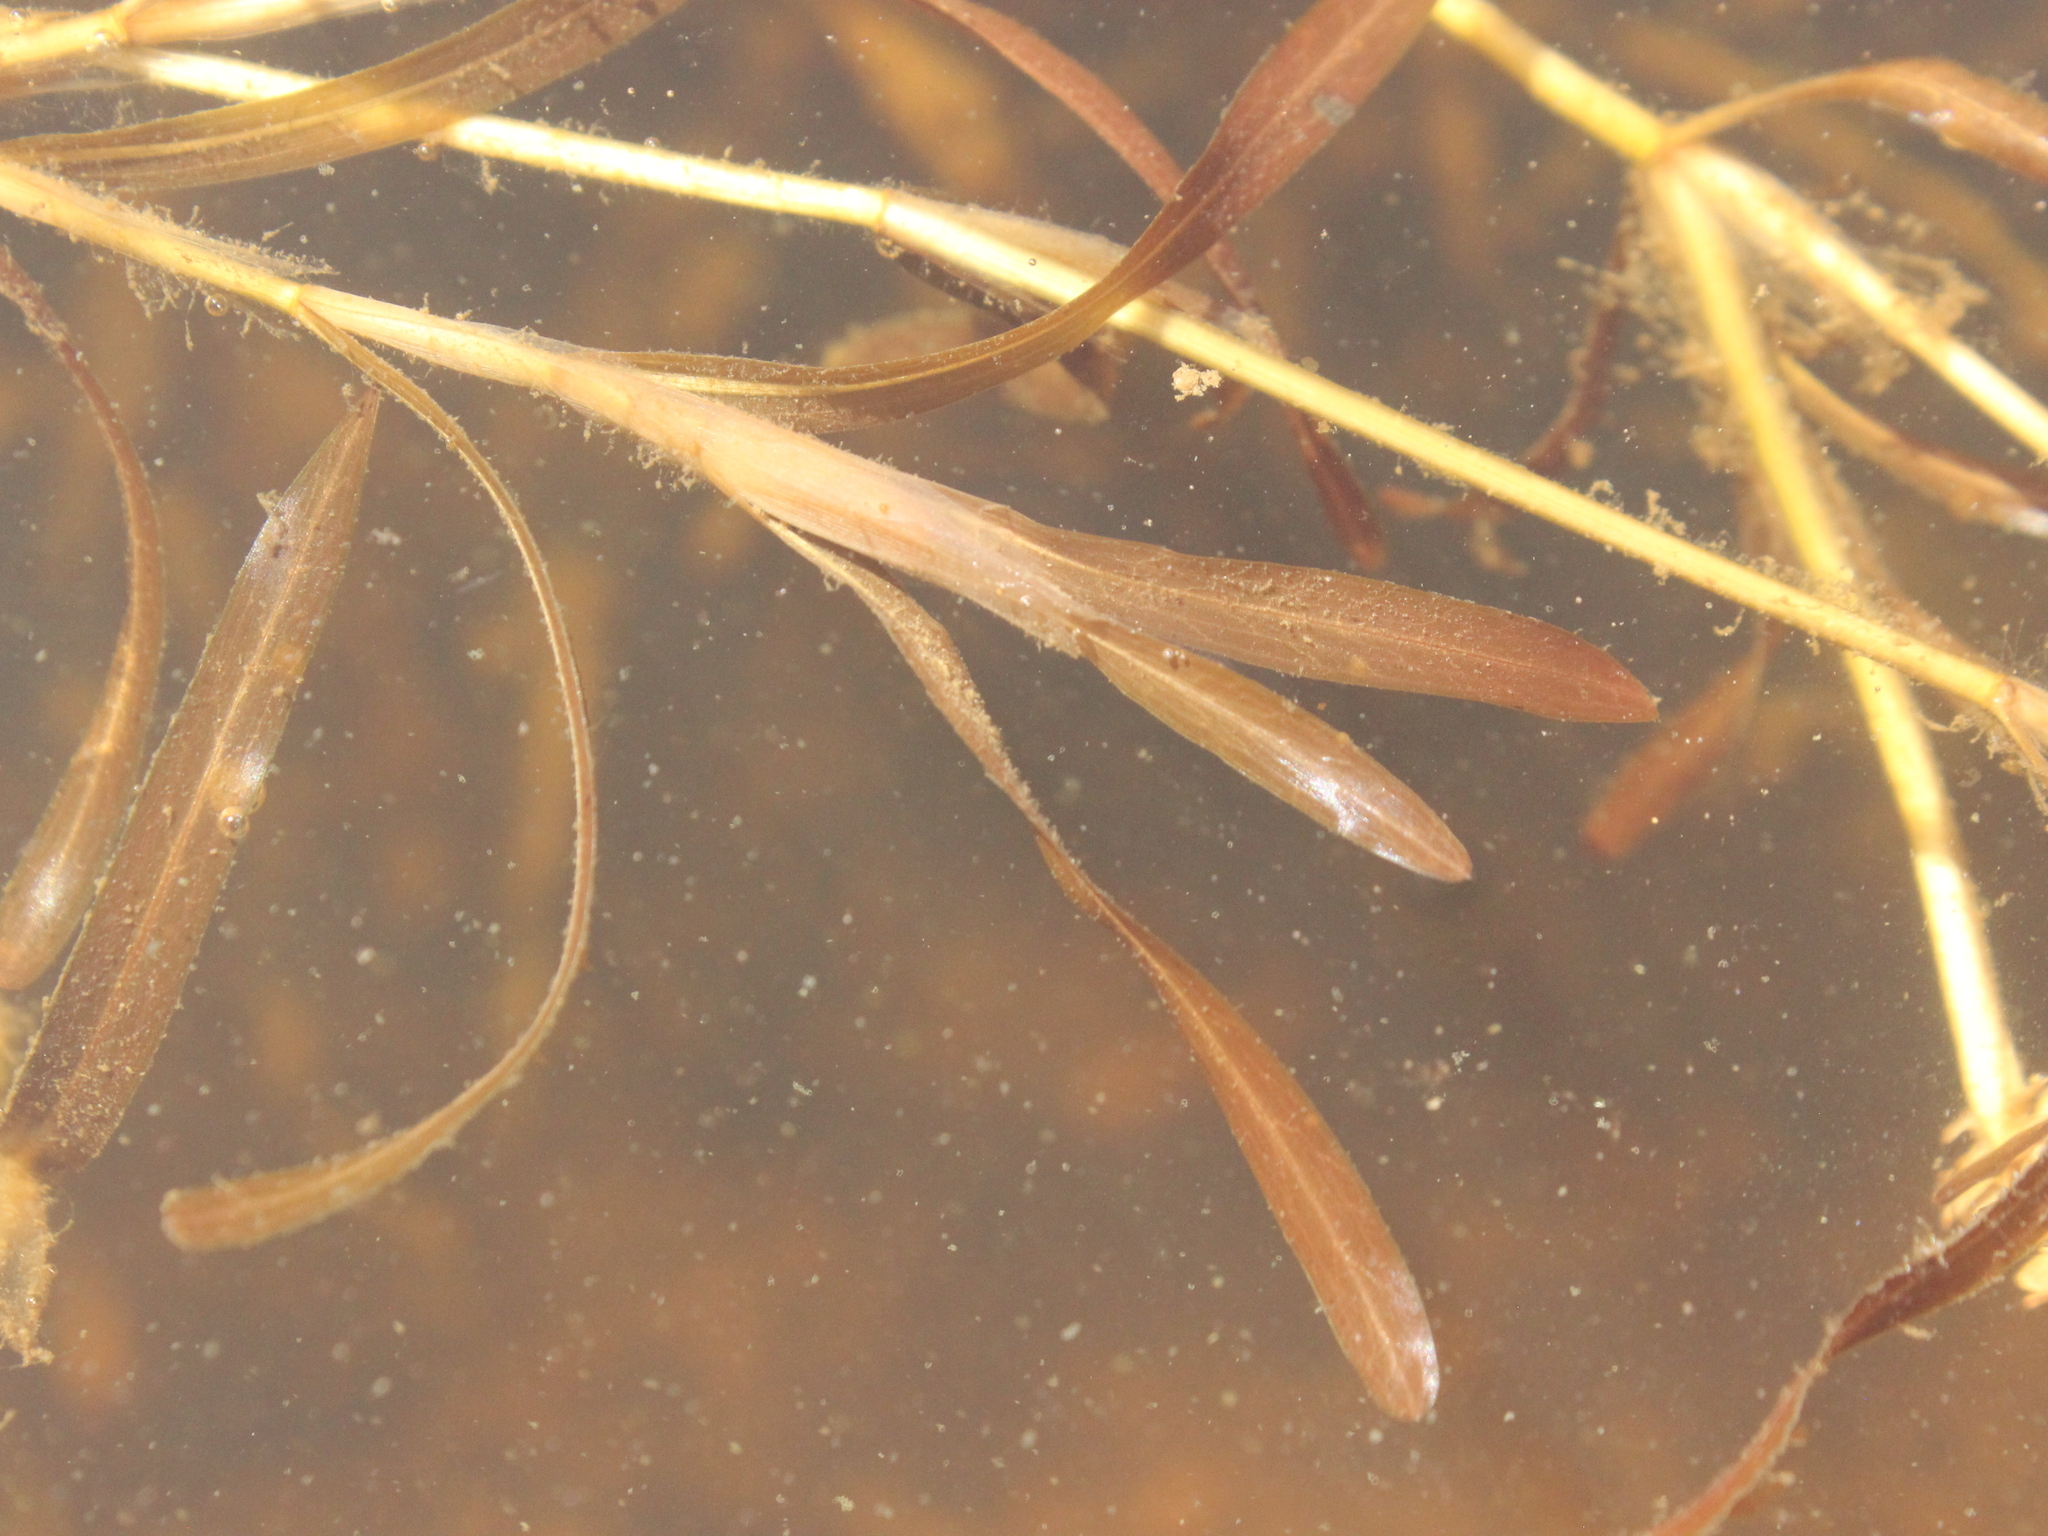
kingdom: Plantae
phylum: Tracheophyta
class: Liliopsida
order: Alismatales
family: Potamogetonaceae
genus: Potamogeton
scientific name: Potamogeton ochreatus
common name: Blunt pondweed
